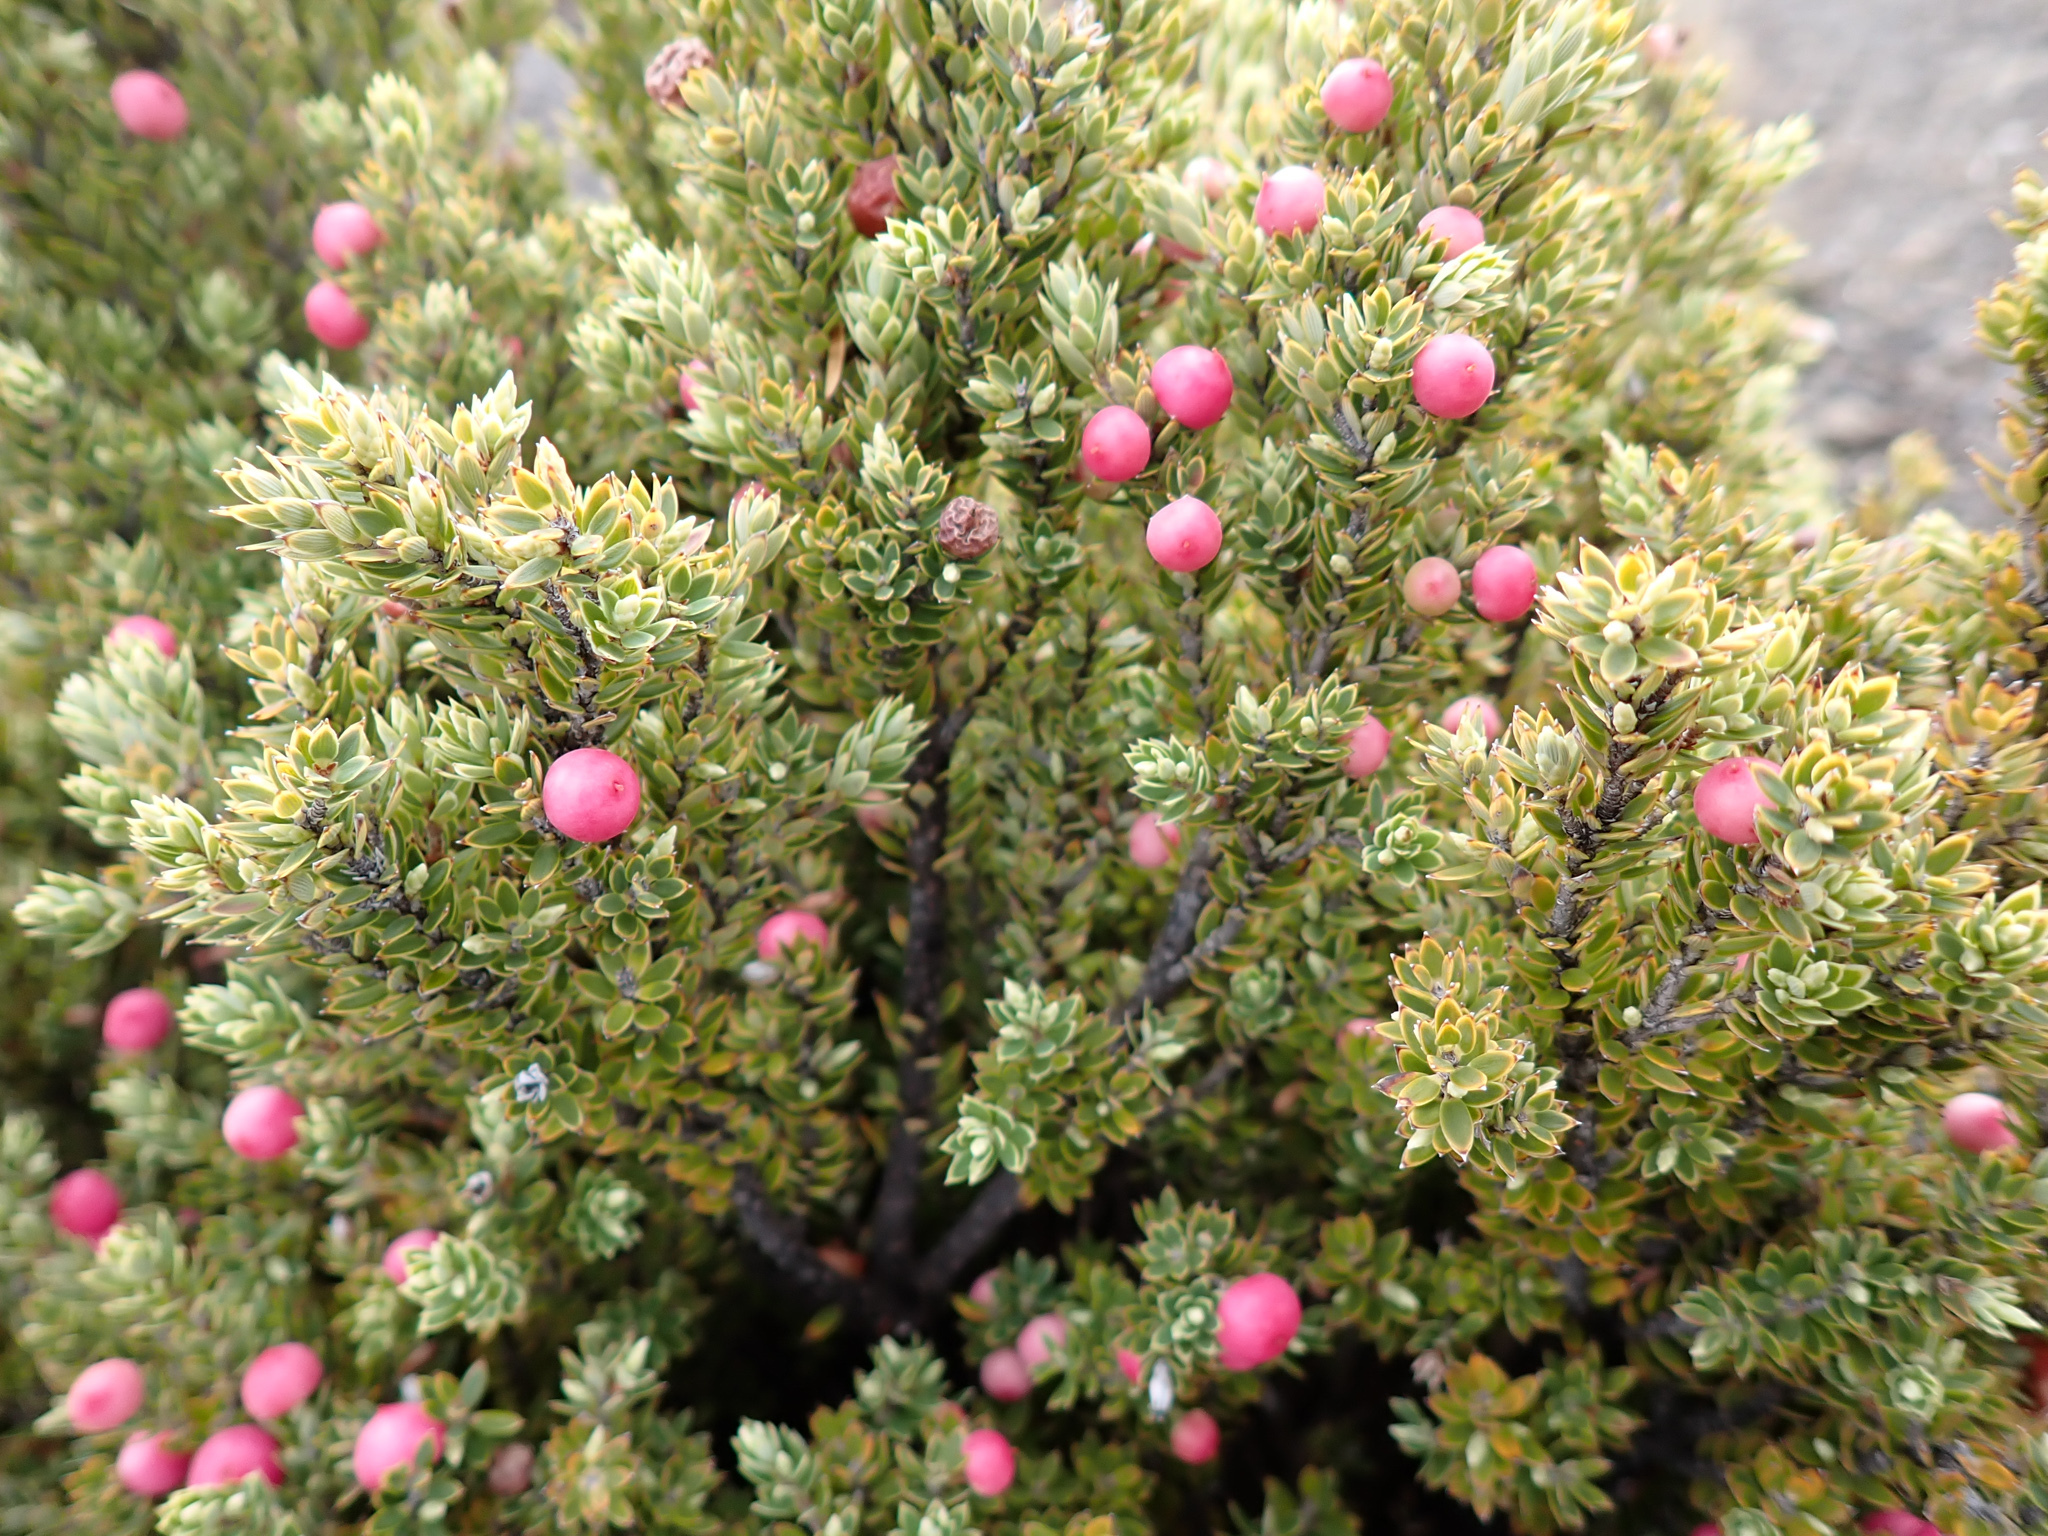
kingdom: Plantae
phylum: Tracheophyta
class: Magnoliopsida
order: Ericales
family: Ericaceae
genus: Leptecophylla
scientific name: Leptecophylla tameiameiae
